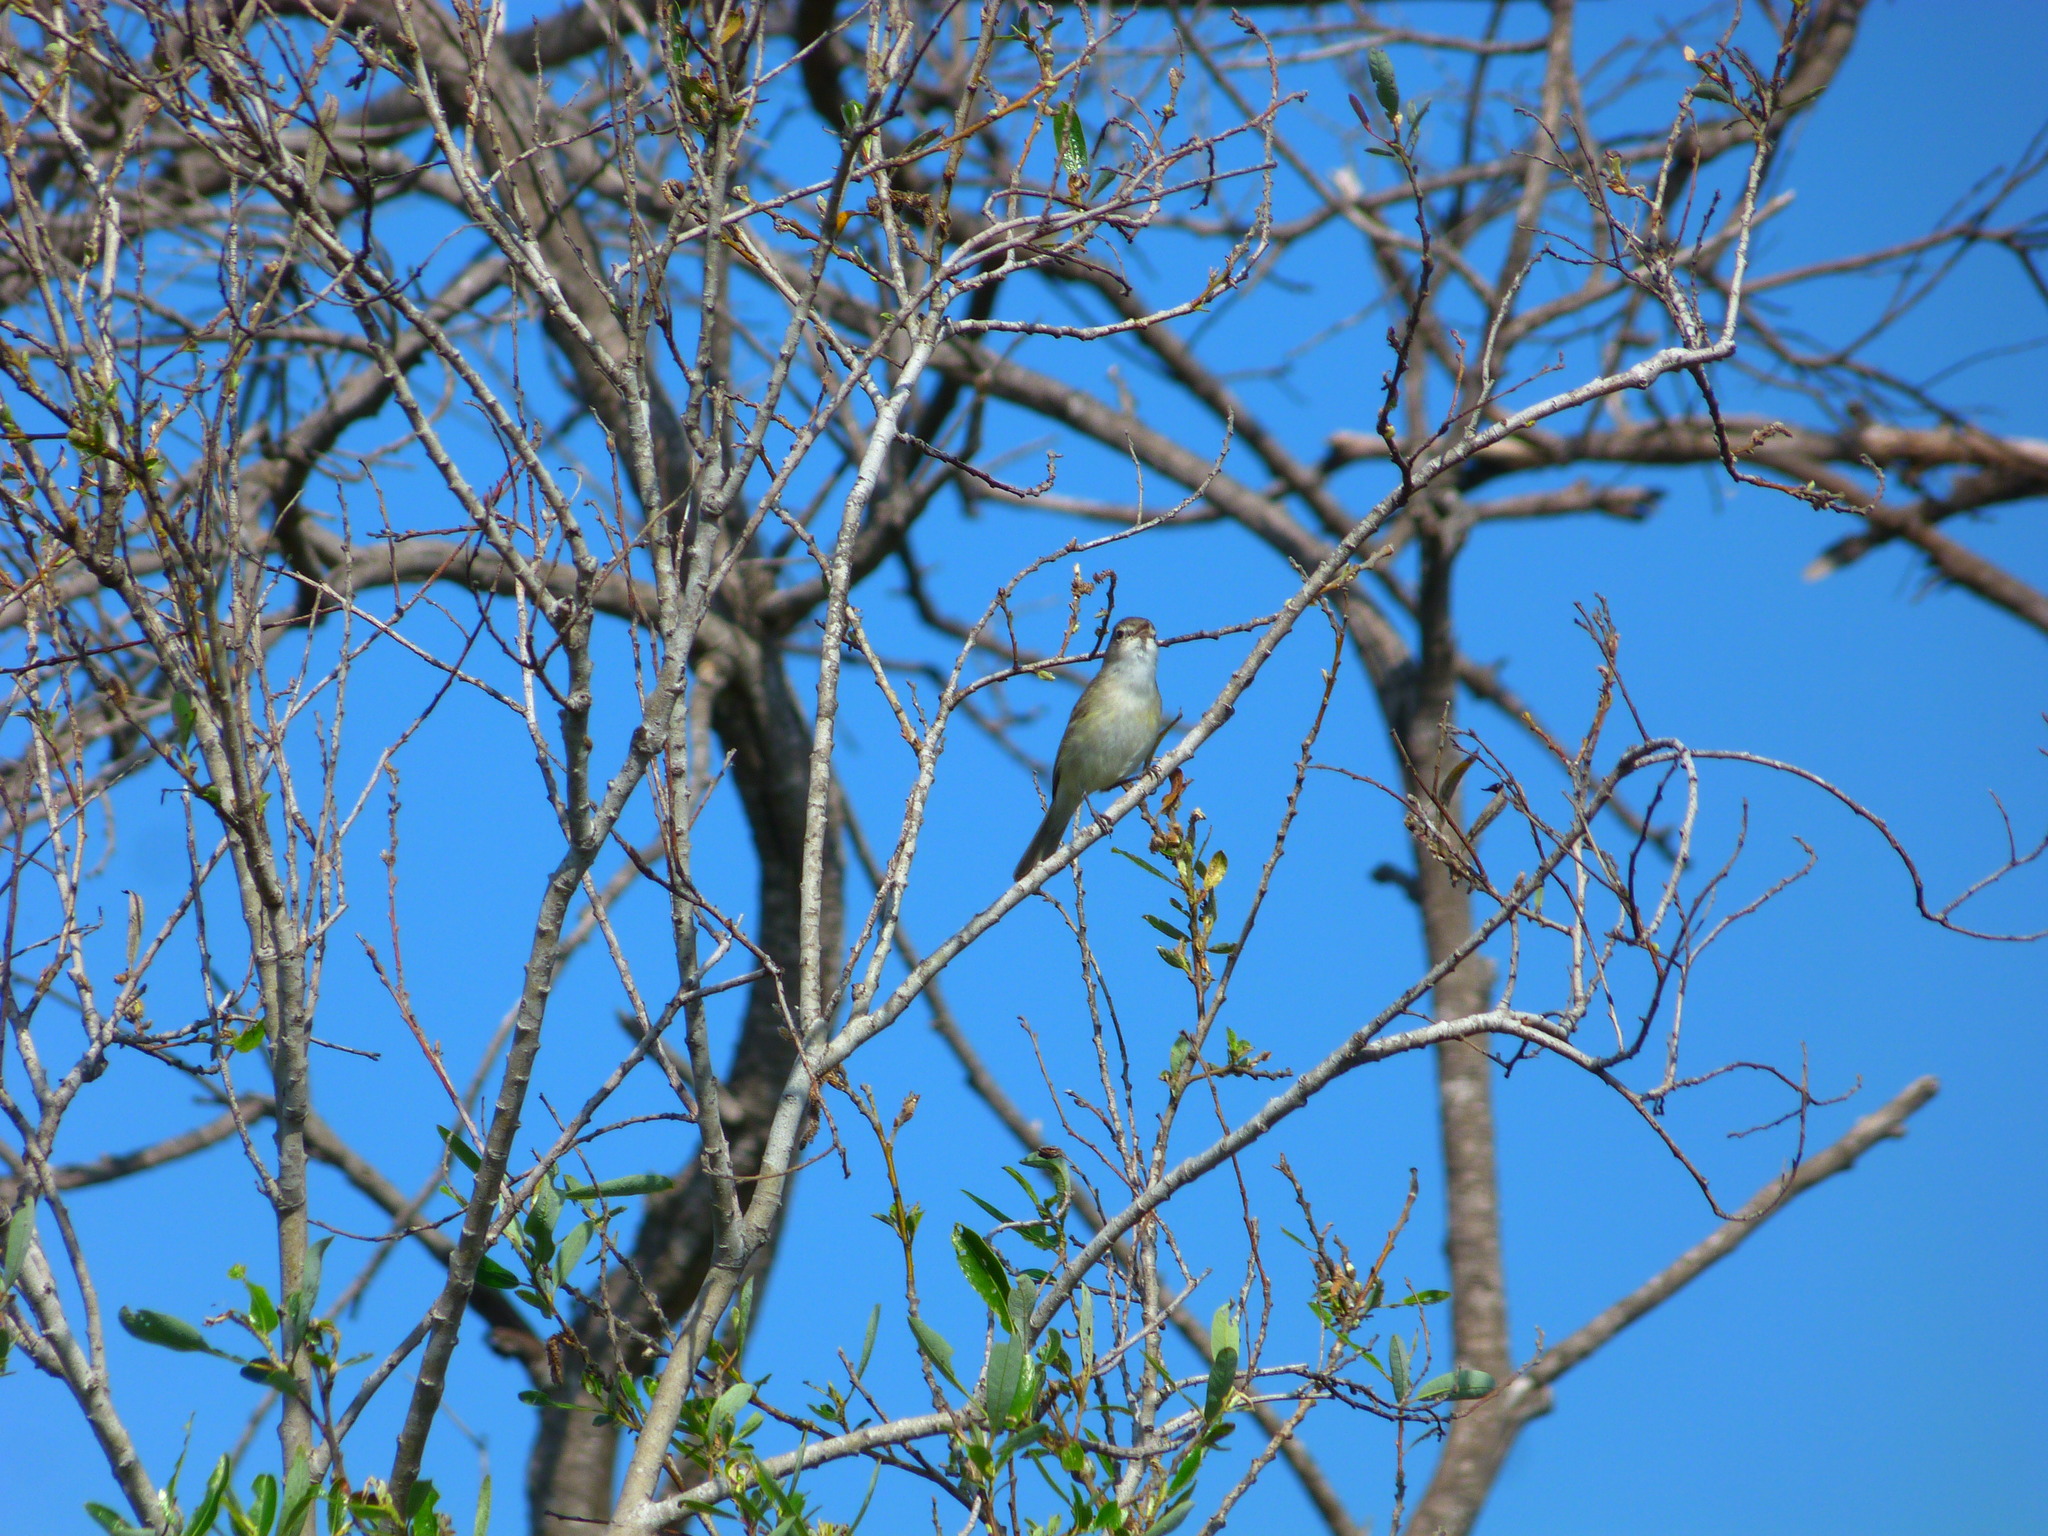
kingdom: Animalia
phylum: Chordata
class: Aves
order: Passeriformes
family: Vireonidae
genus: Vireo
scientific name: Vireo bellii
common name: Bell's vireo
